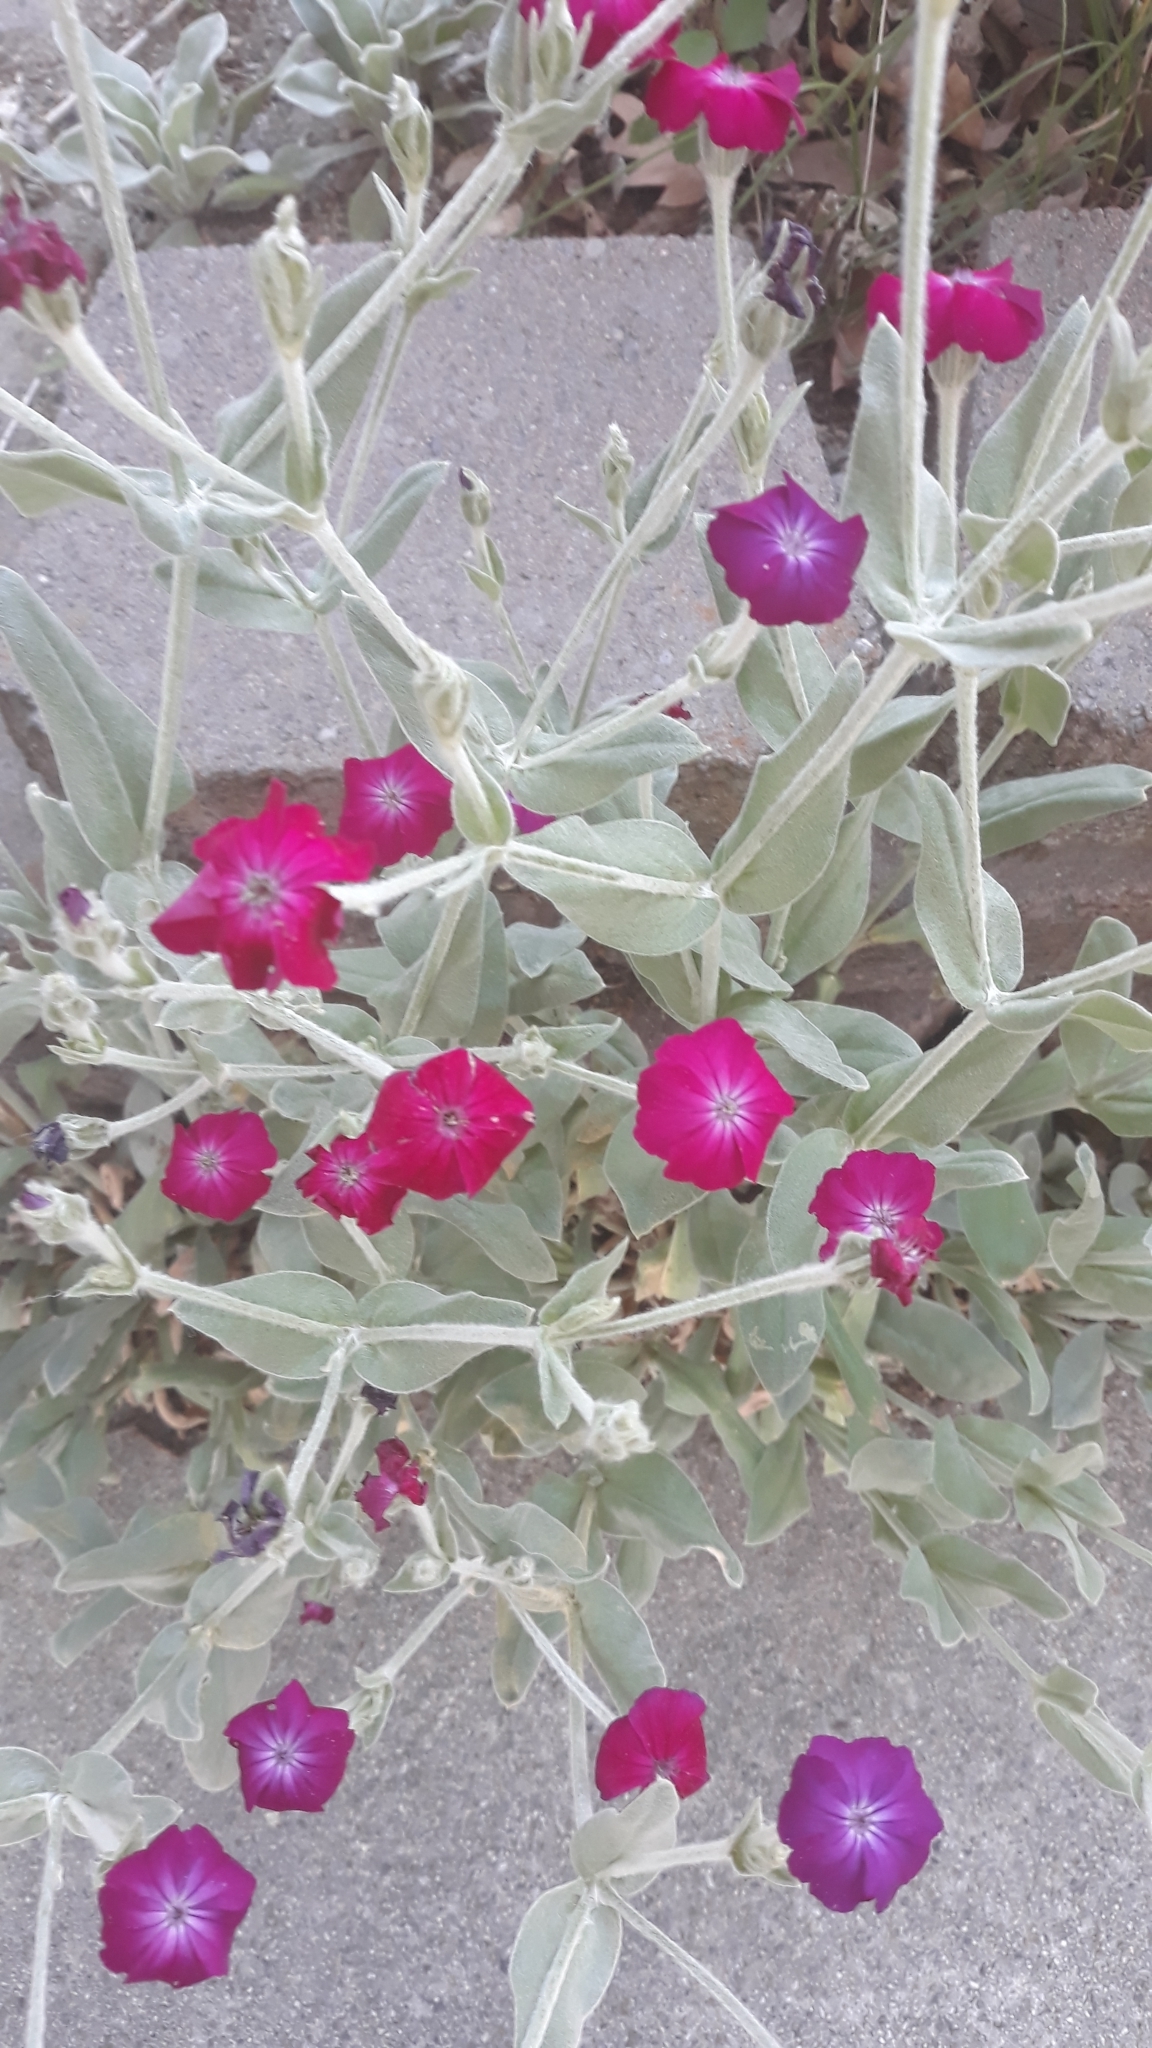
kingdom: Plantae
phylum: Tracheophyta
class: Magnoliopsida
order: Caryophyllales
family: Caryophyllaceae
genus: Silene
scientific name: Silene coronaria
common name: Rose campion
